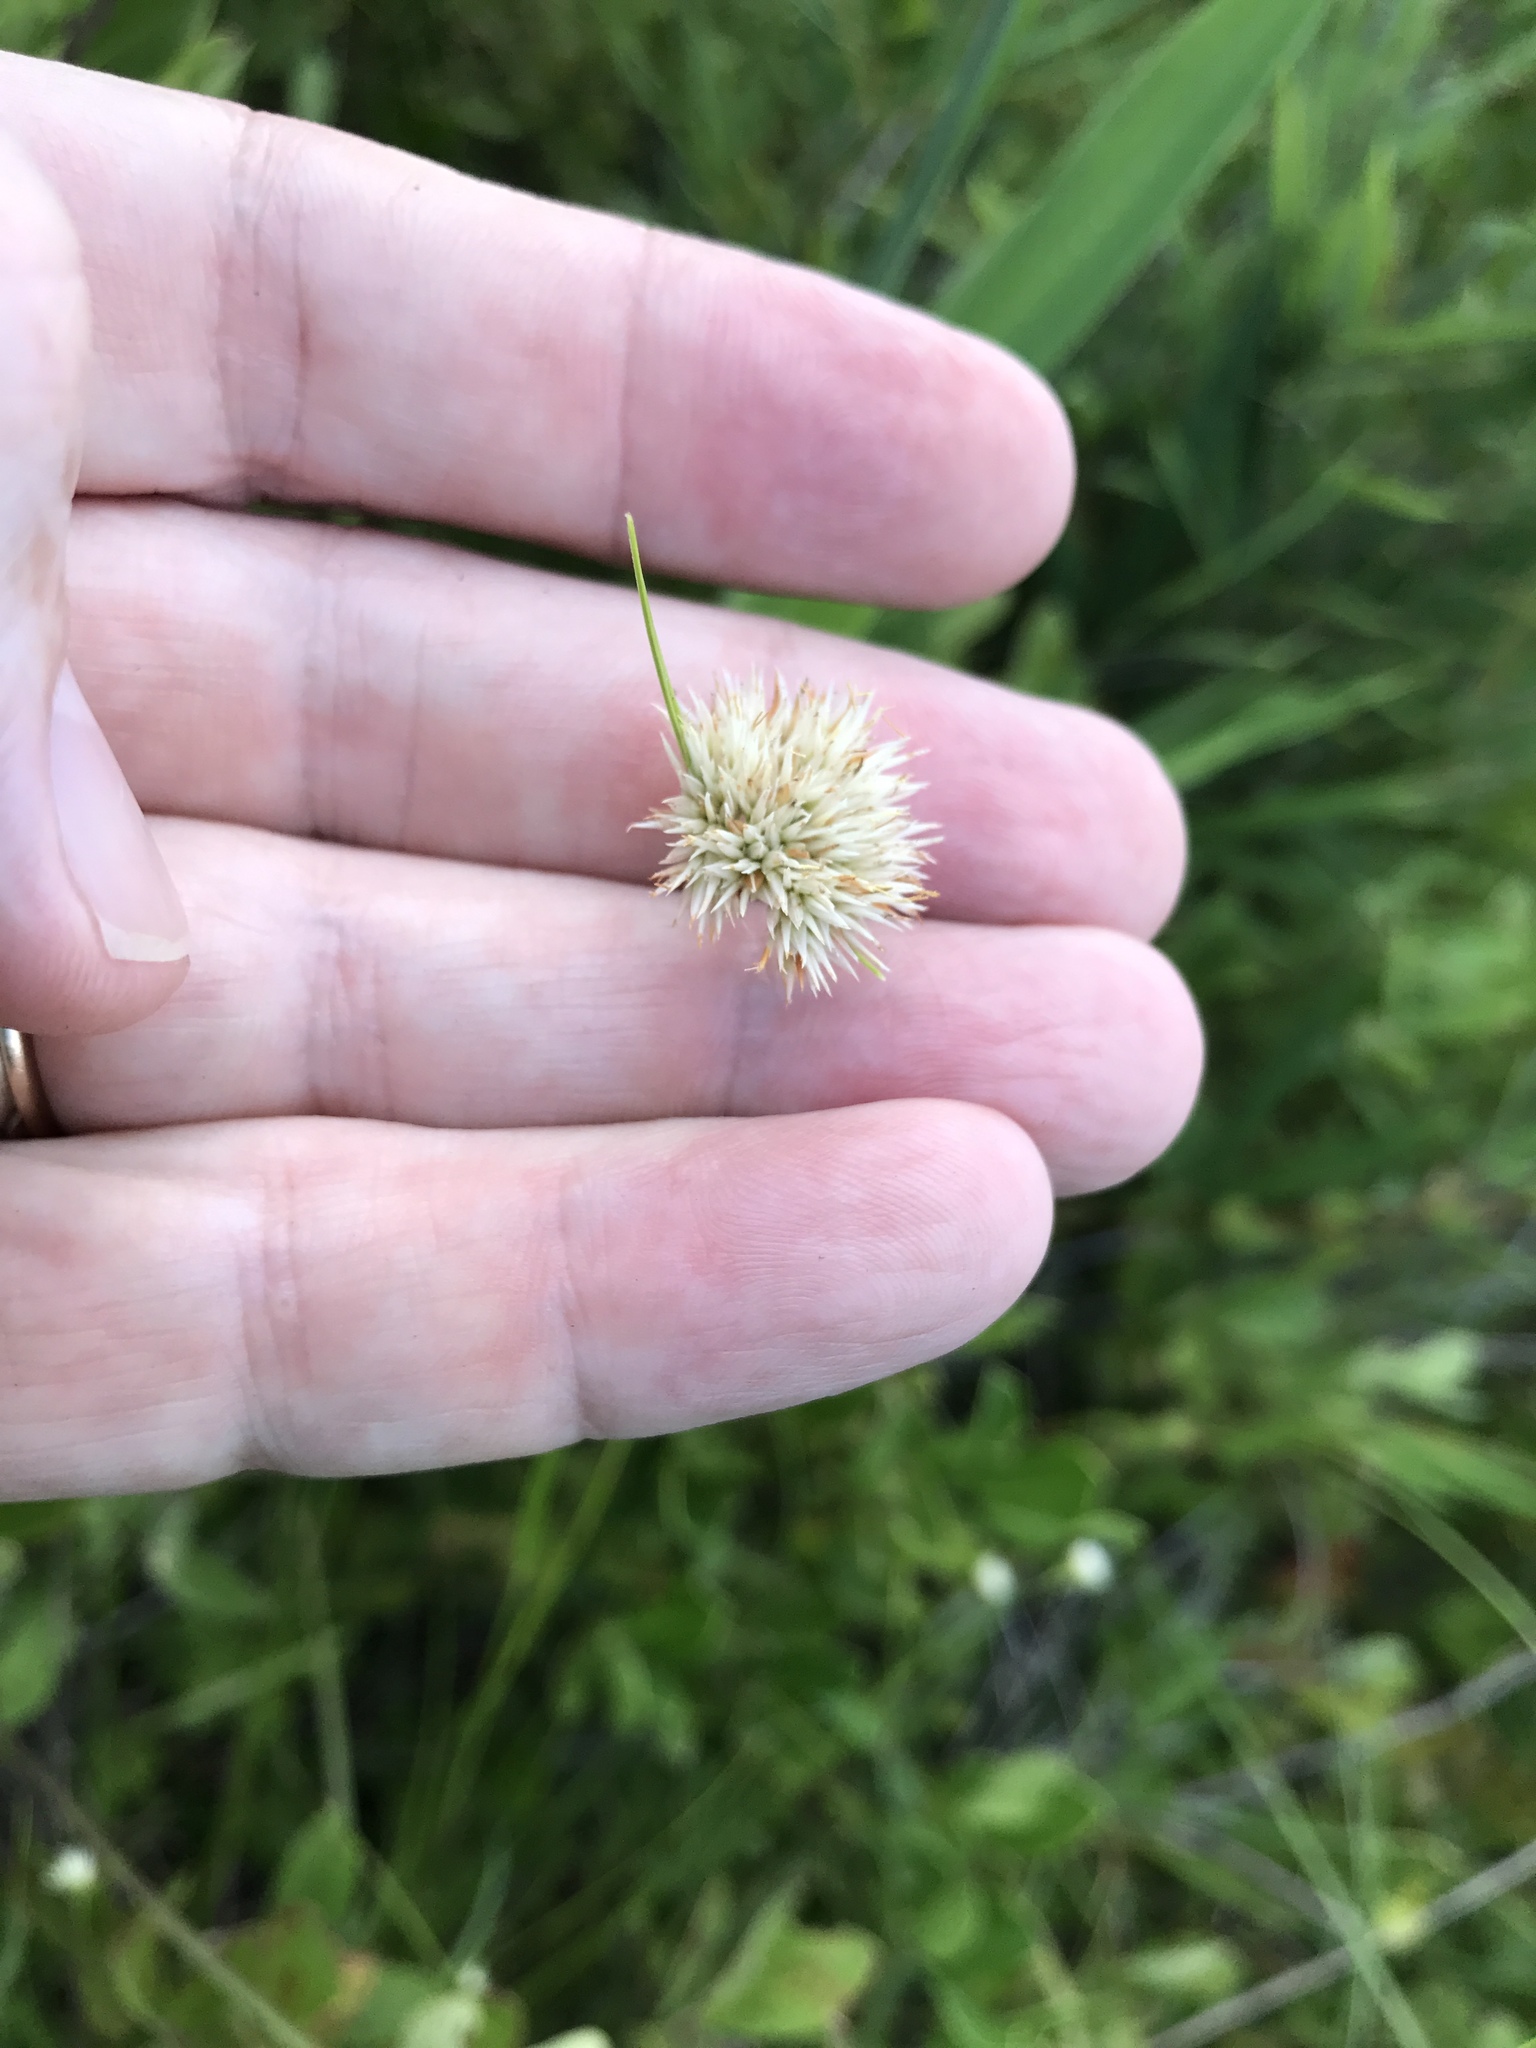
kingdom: Plantae
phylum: Tracheophyta
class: Liliopsida
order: Poales
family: Cyperaceae
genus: Rhynchospora
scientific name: Rhynchospora pallida
